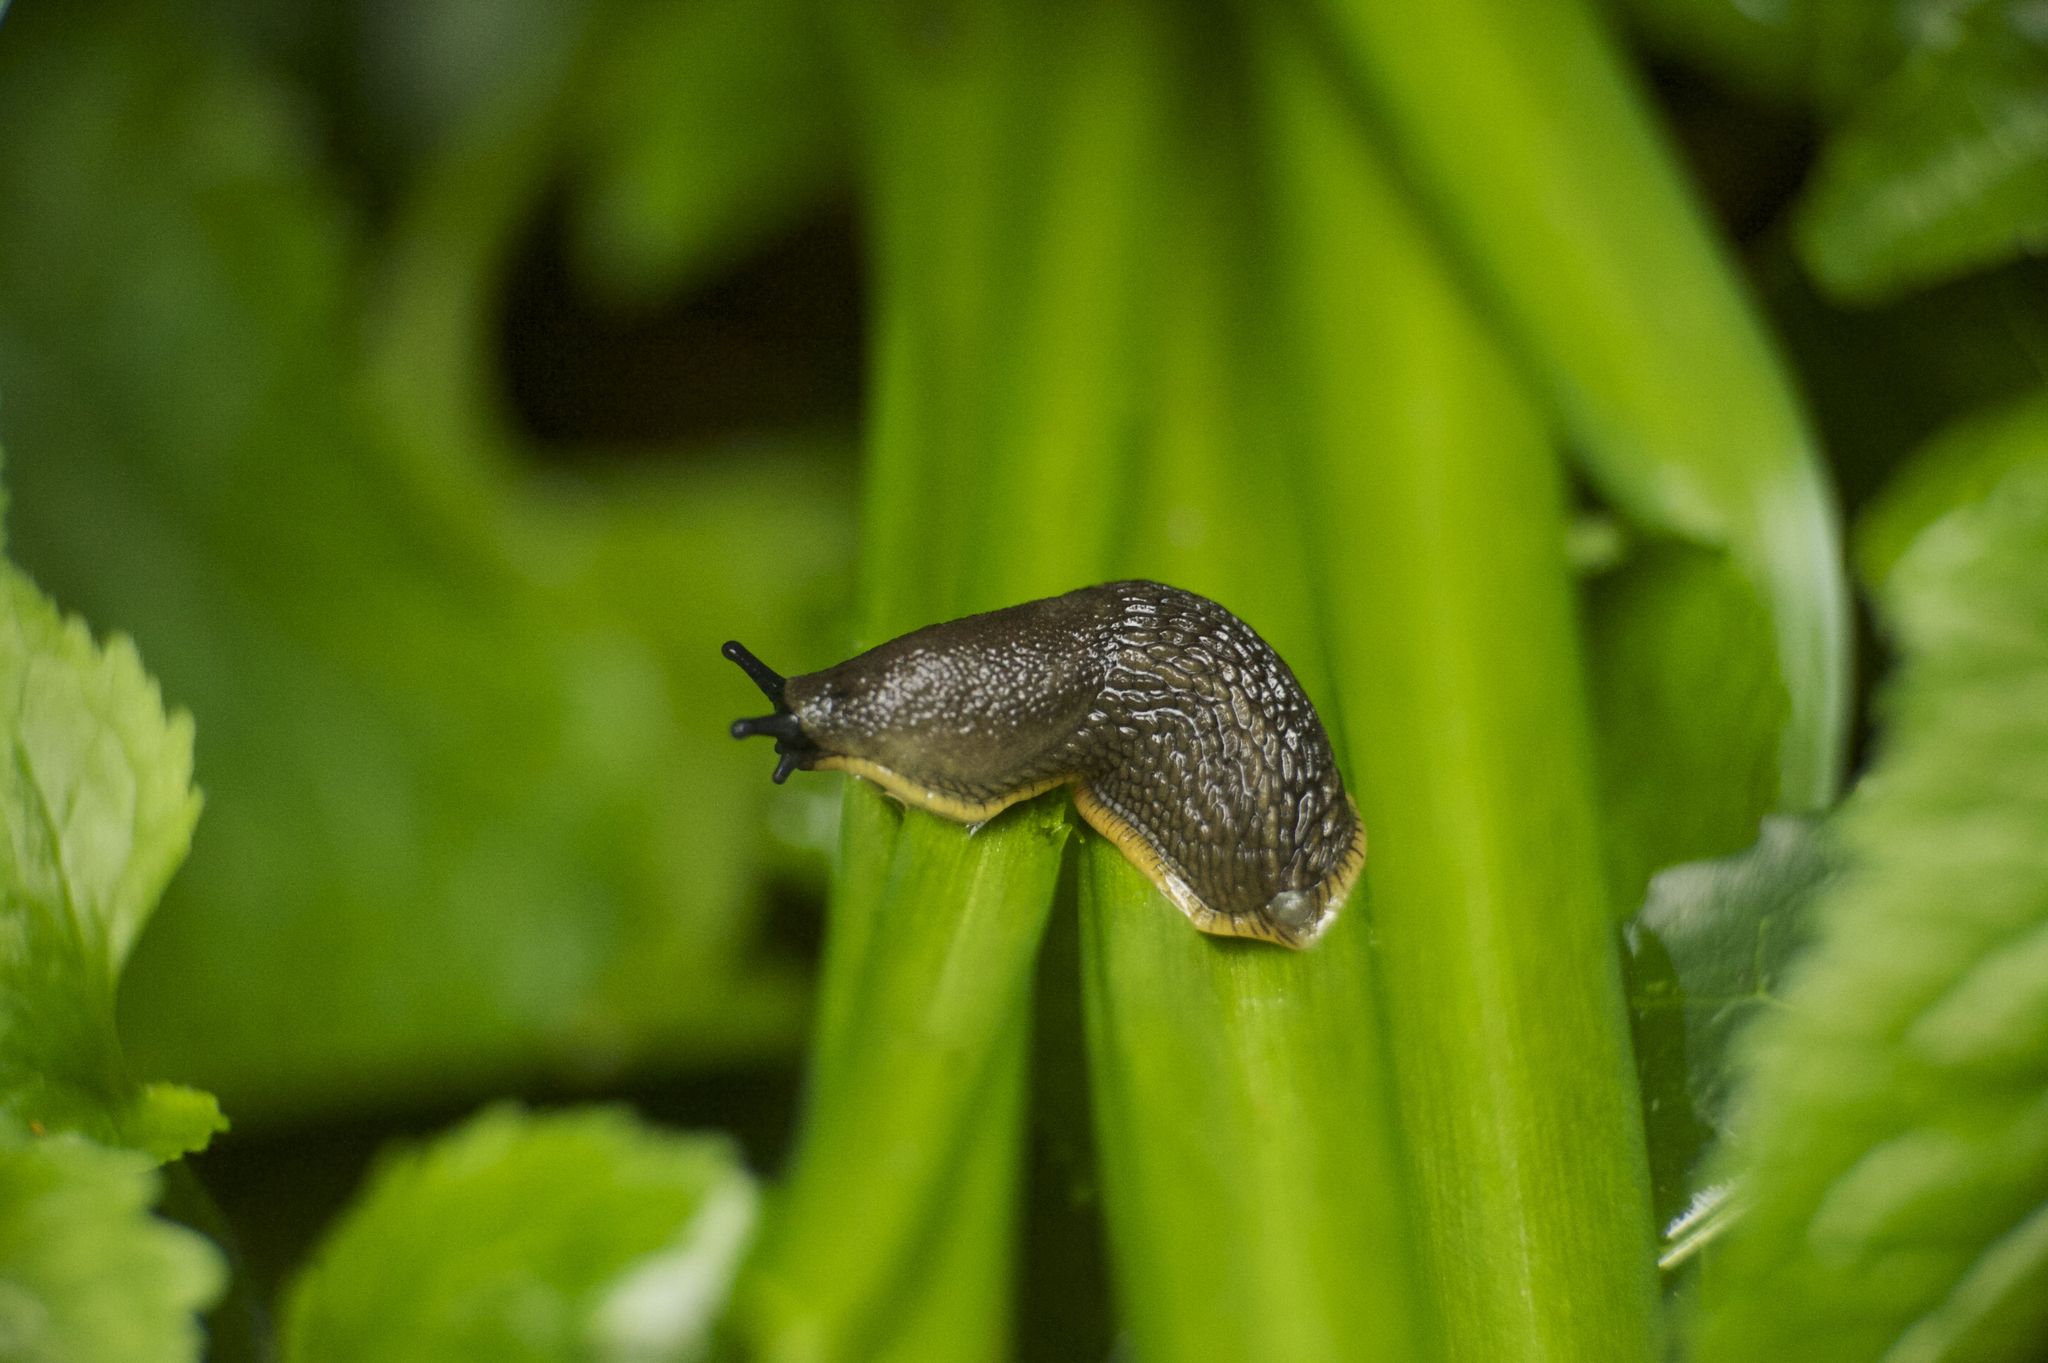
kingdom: Animalia
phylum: Mollusca
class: Gastropoda
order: Stylommatophora
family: Arionidae
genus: Arion
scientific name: Arion
